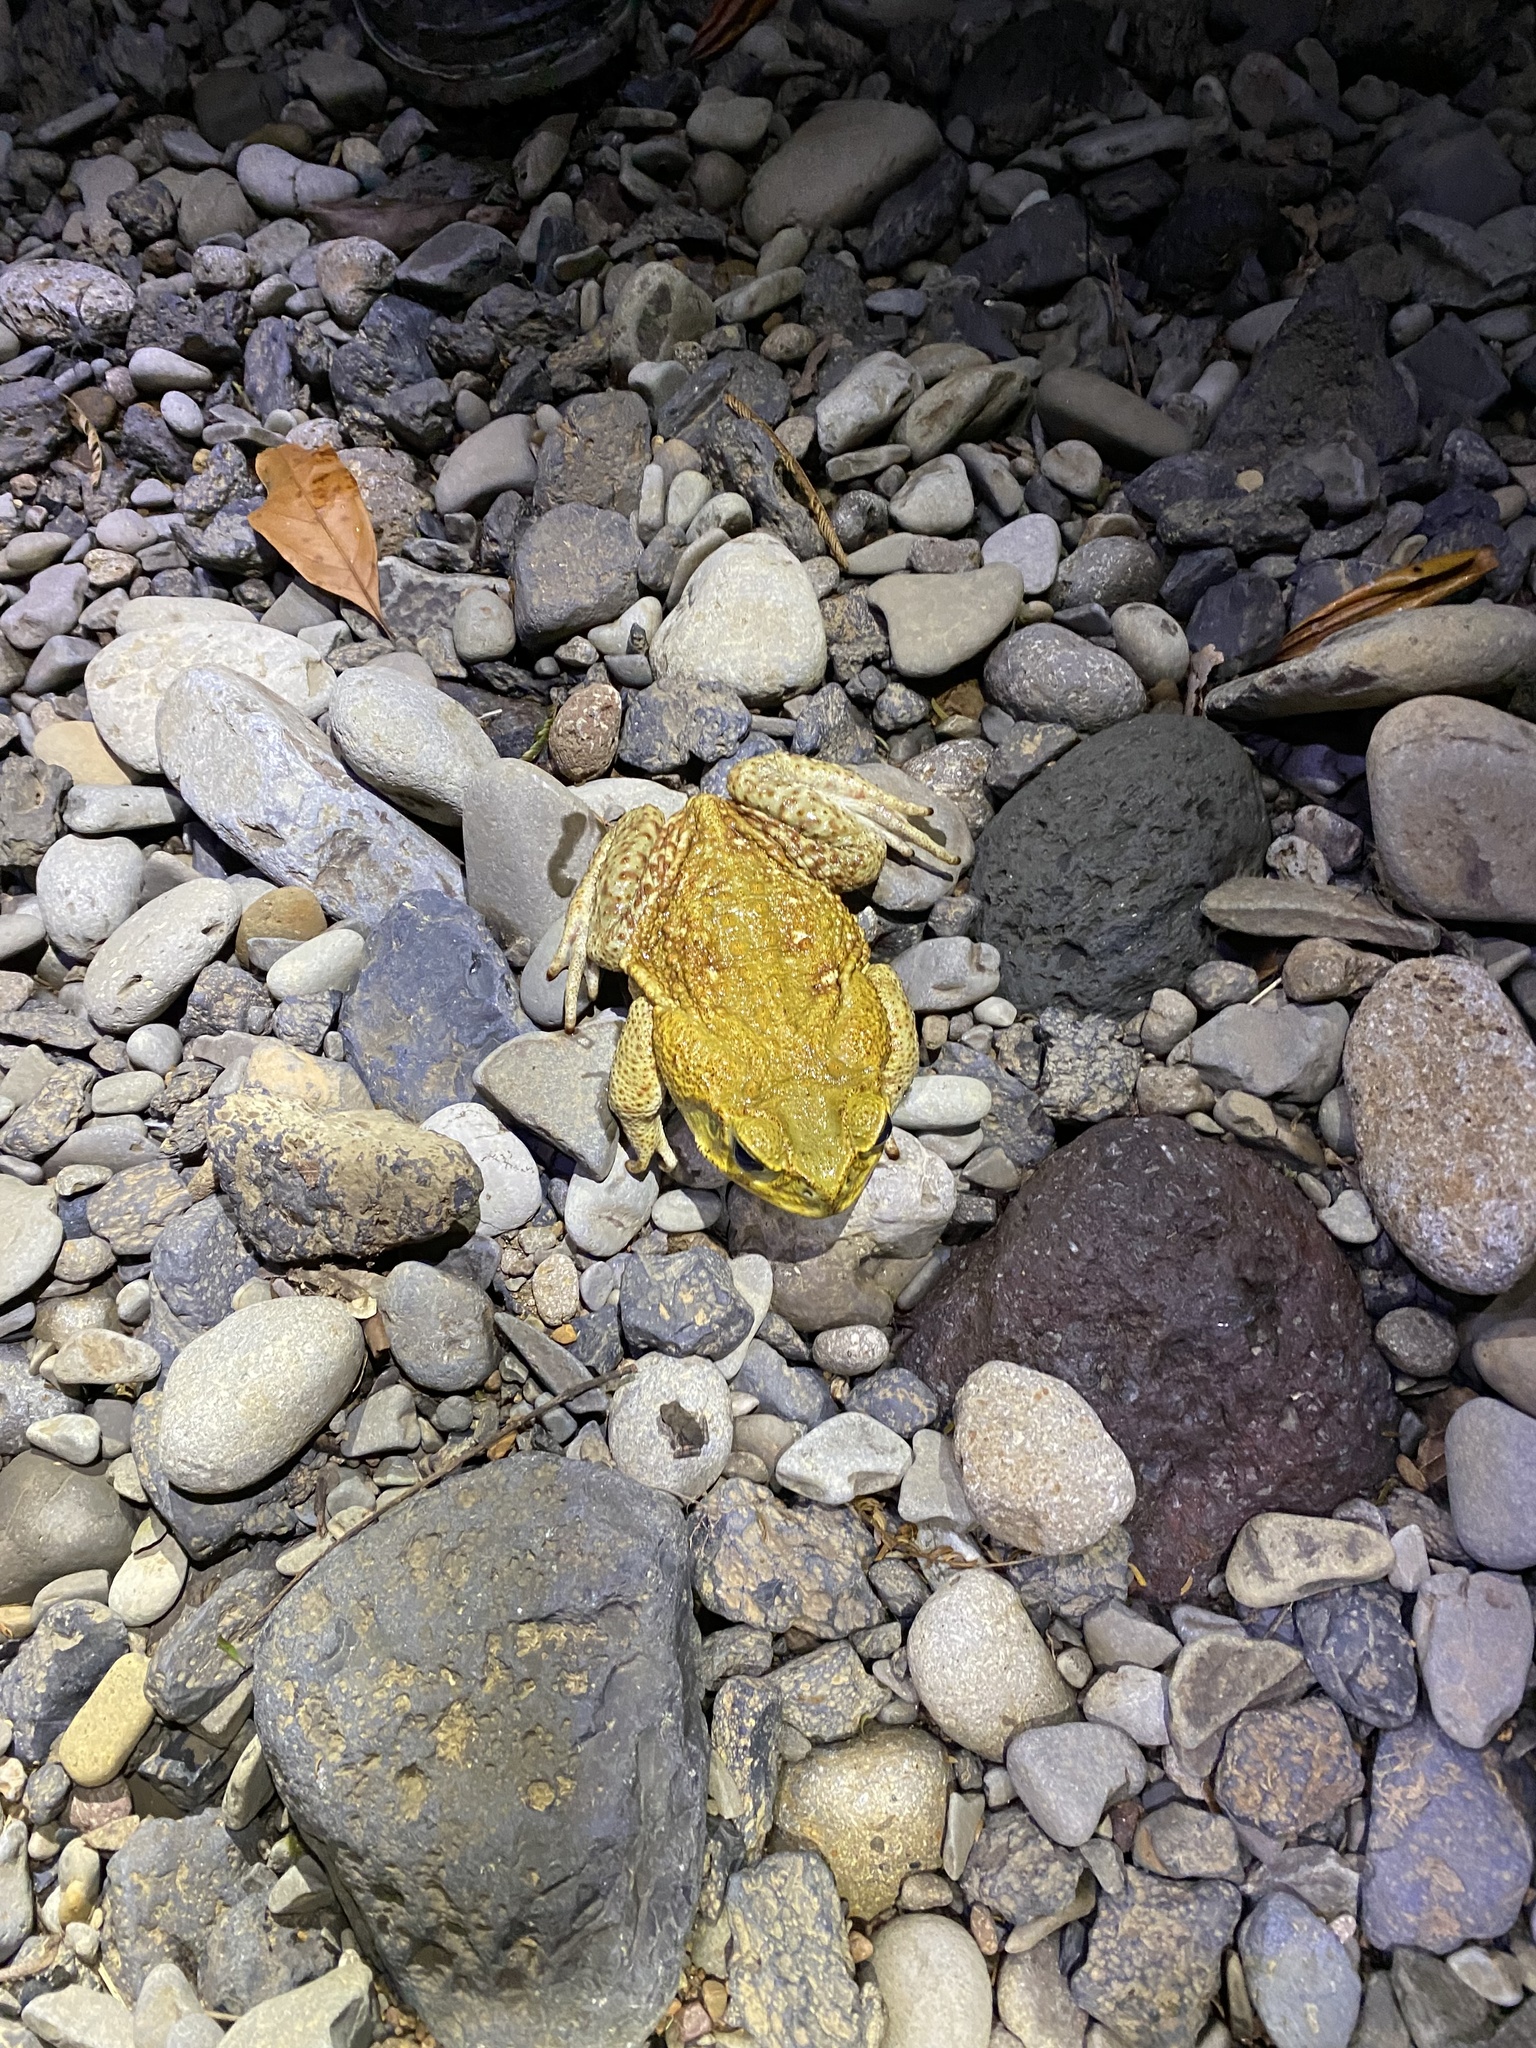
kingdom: Animalia
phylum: Chordata
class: Amphibia
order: Anura
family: Bufonidae
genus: Rhinella
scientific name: Rhinella horribilis
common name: Mesoamerican cane toad
